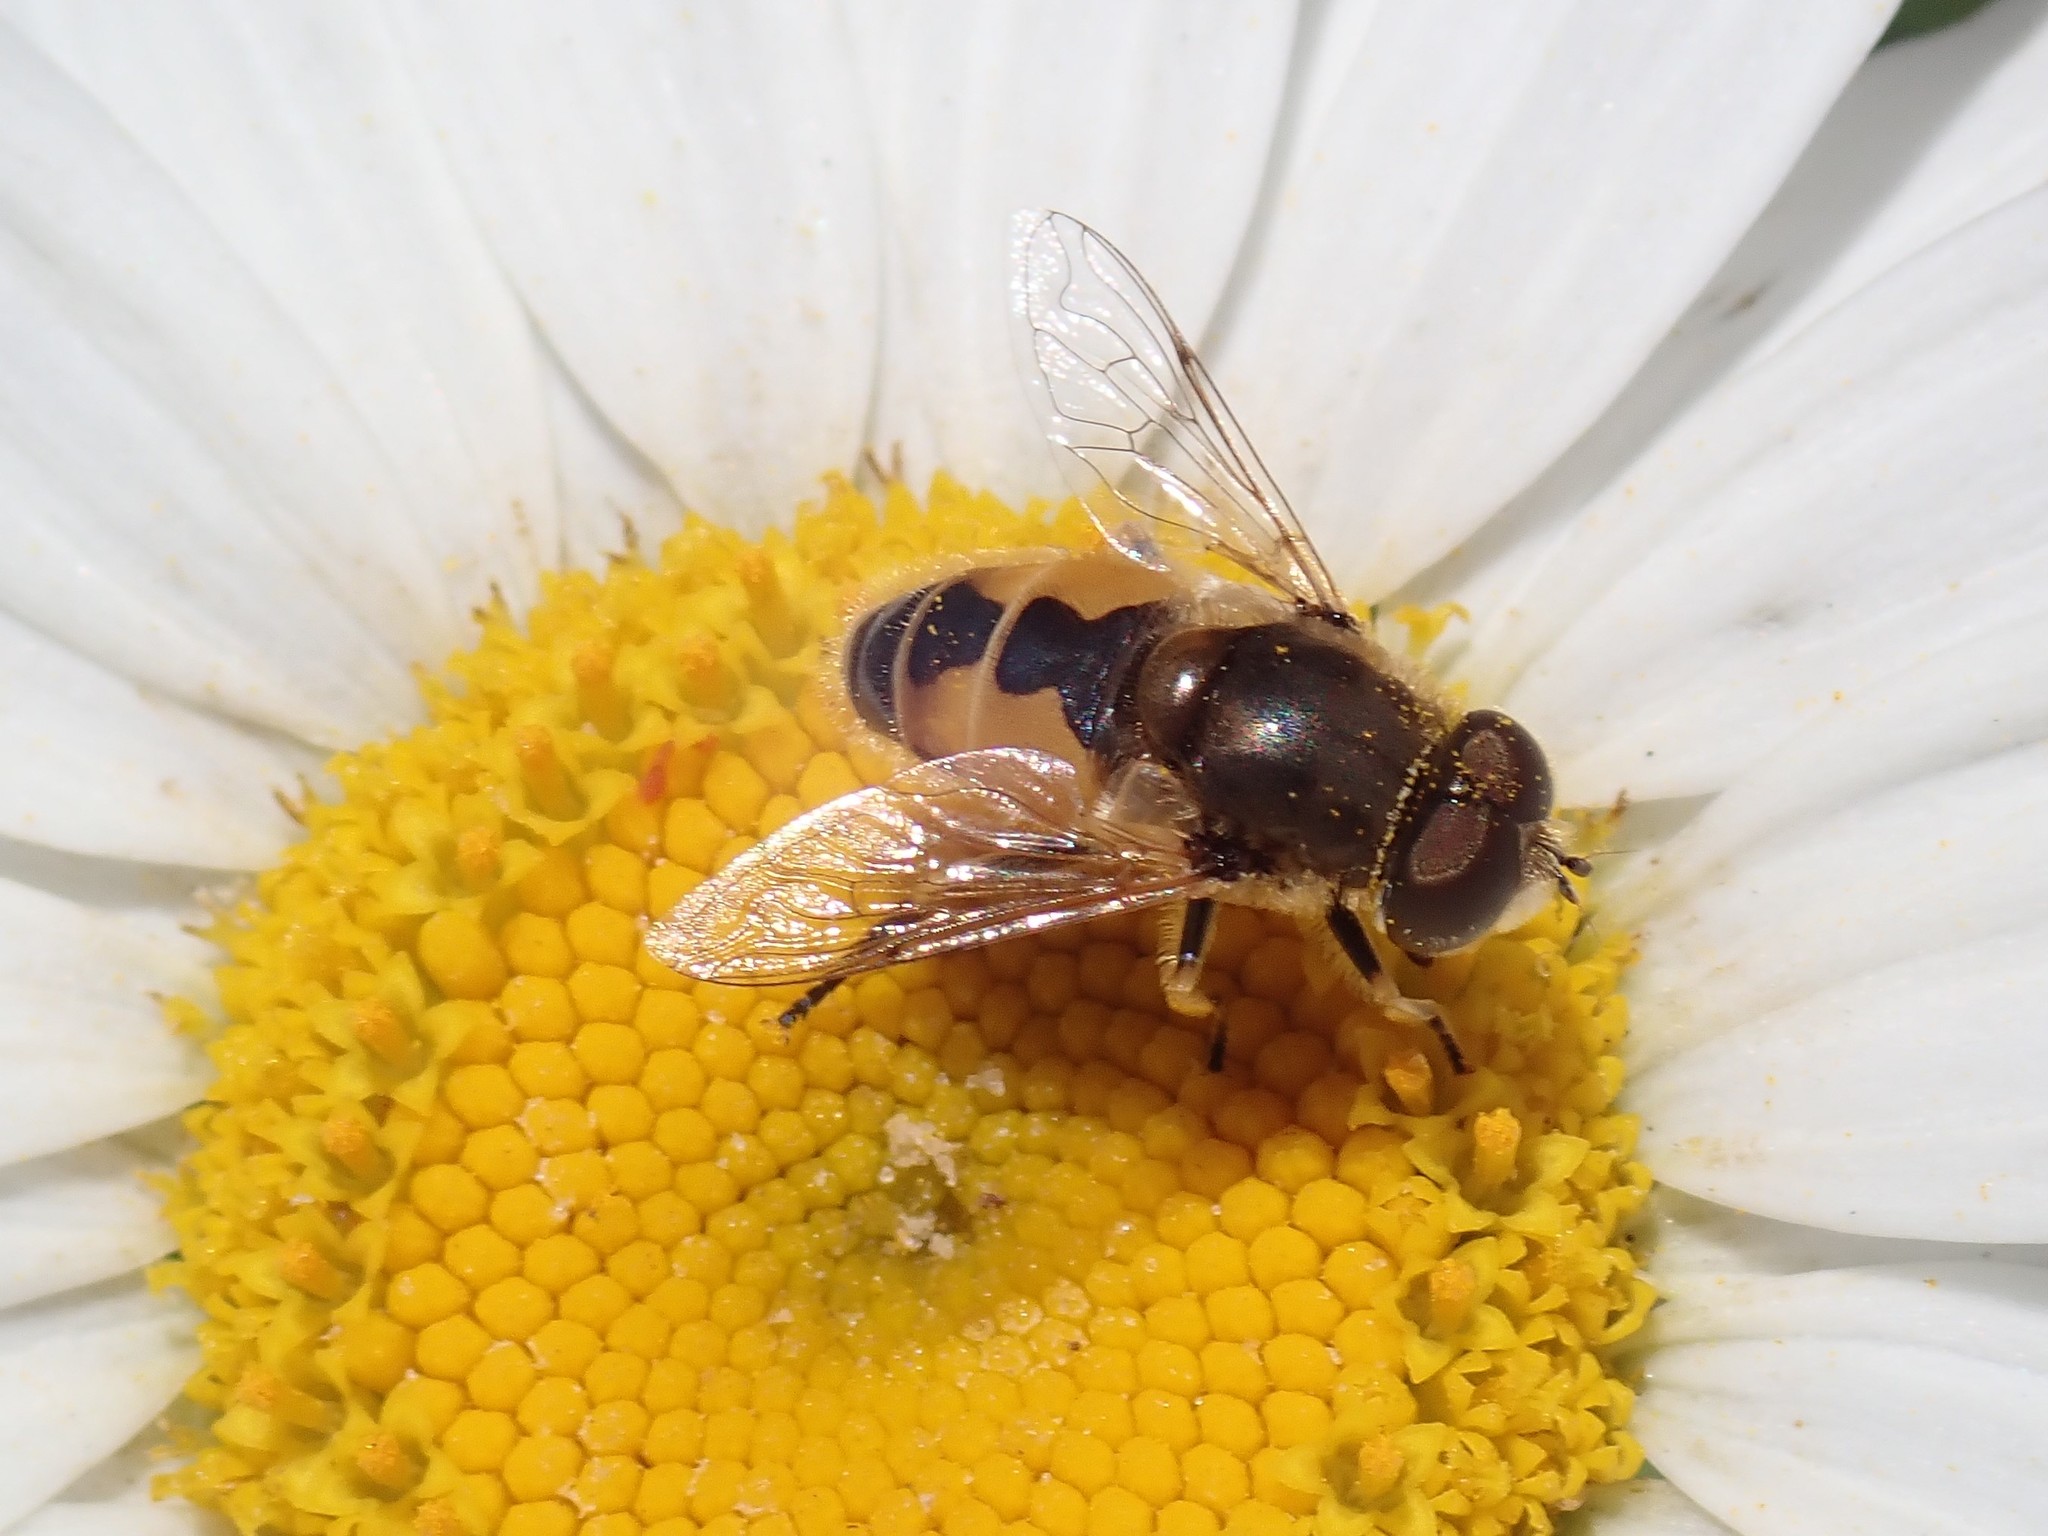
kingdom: Animalia
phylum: Arthropoda
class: Insecta
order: Diptera
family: Syrphidae
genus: Eristalis
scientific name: Eristalis arbustorum
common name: Hover fly
